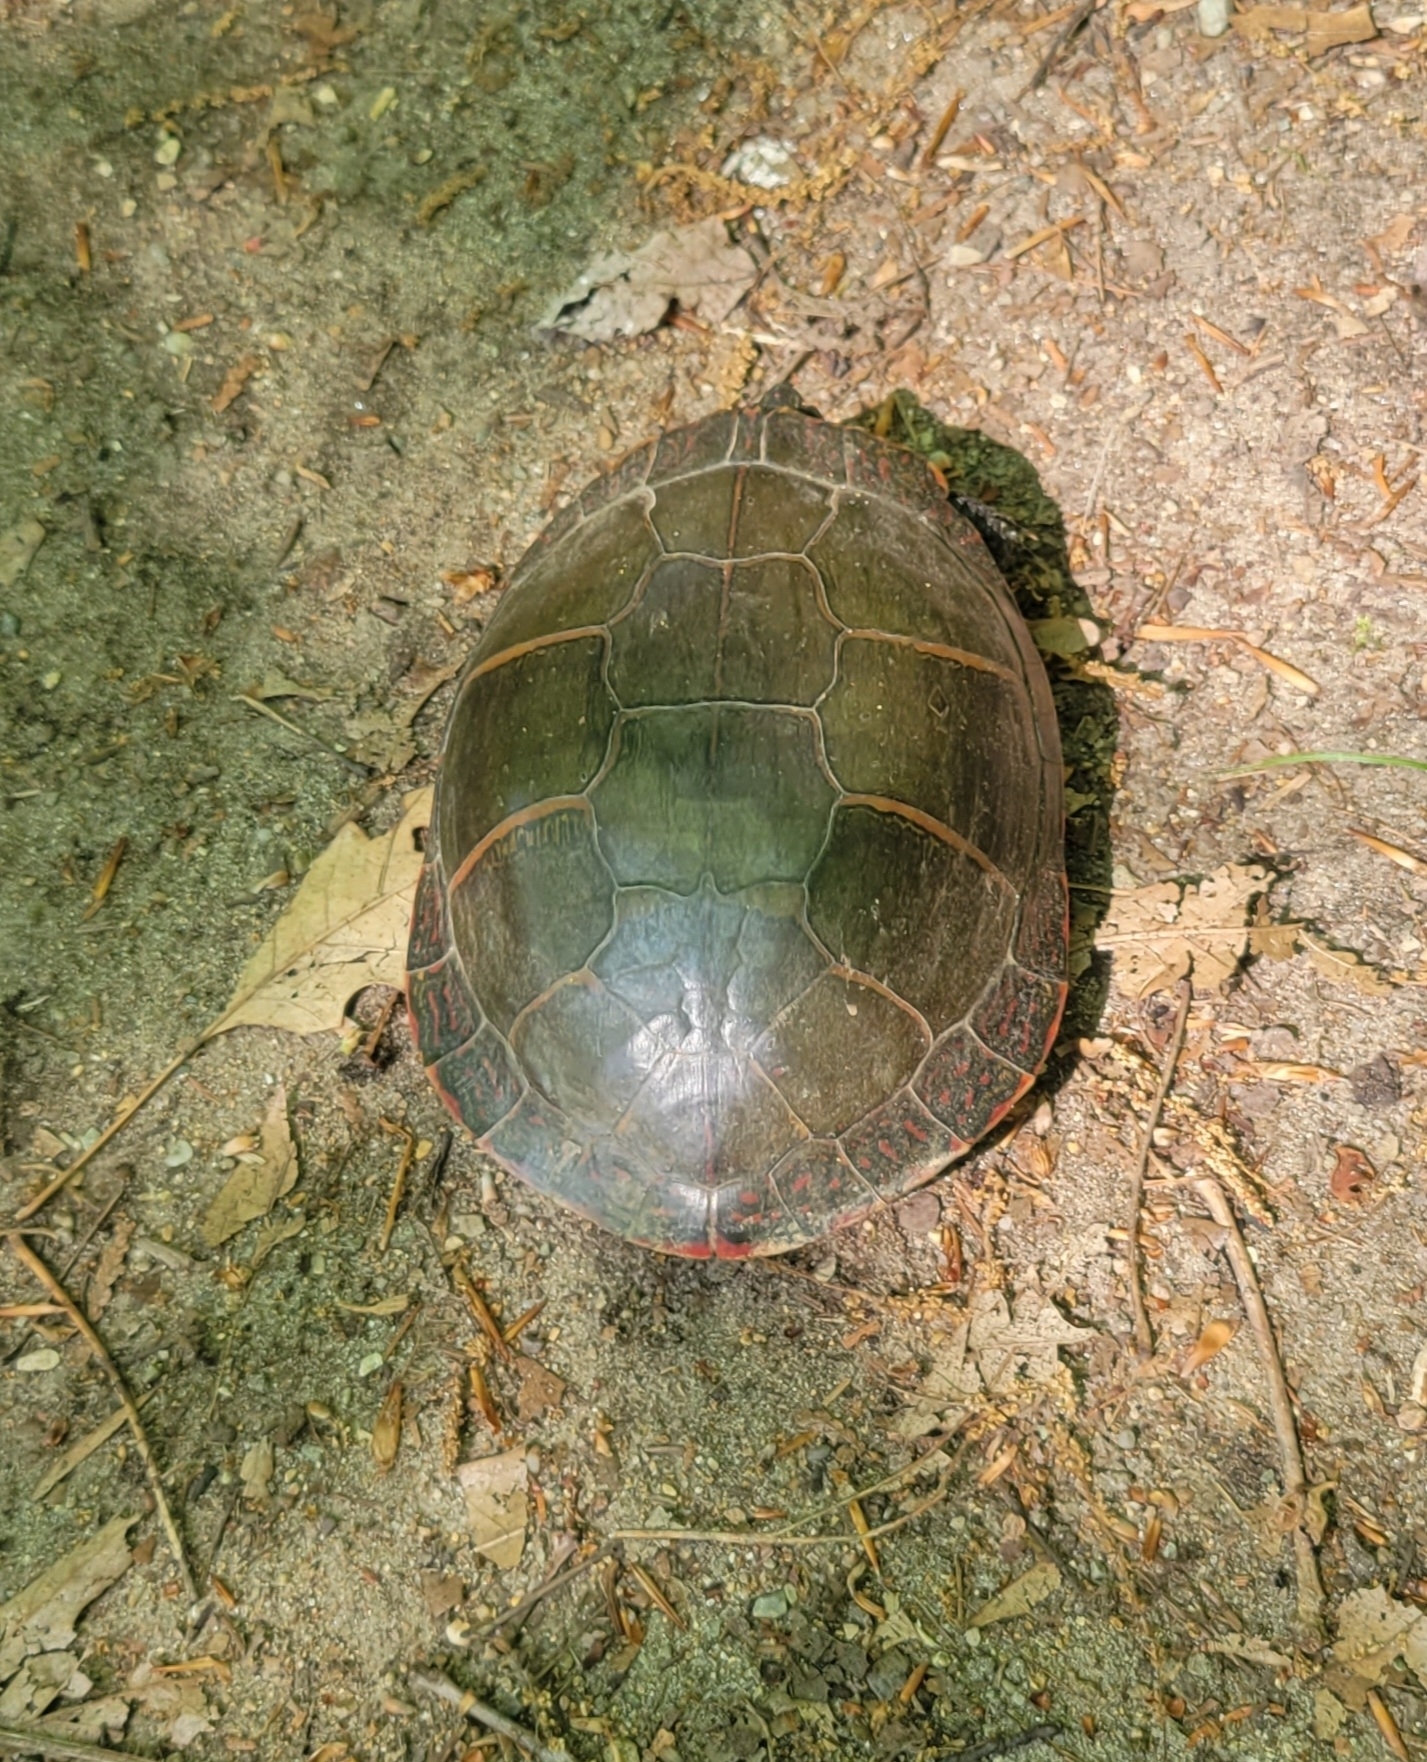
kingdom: Animalia
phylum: Chordata
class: Testudines
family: Emydidae
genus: Chrysemys
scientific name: Chrysemys picta
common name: Painted turtle
